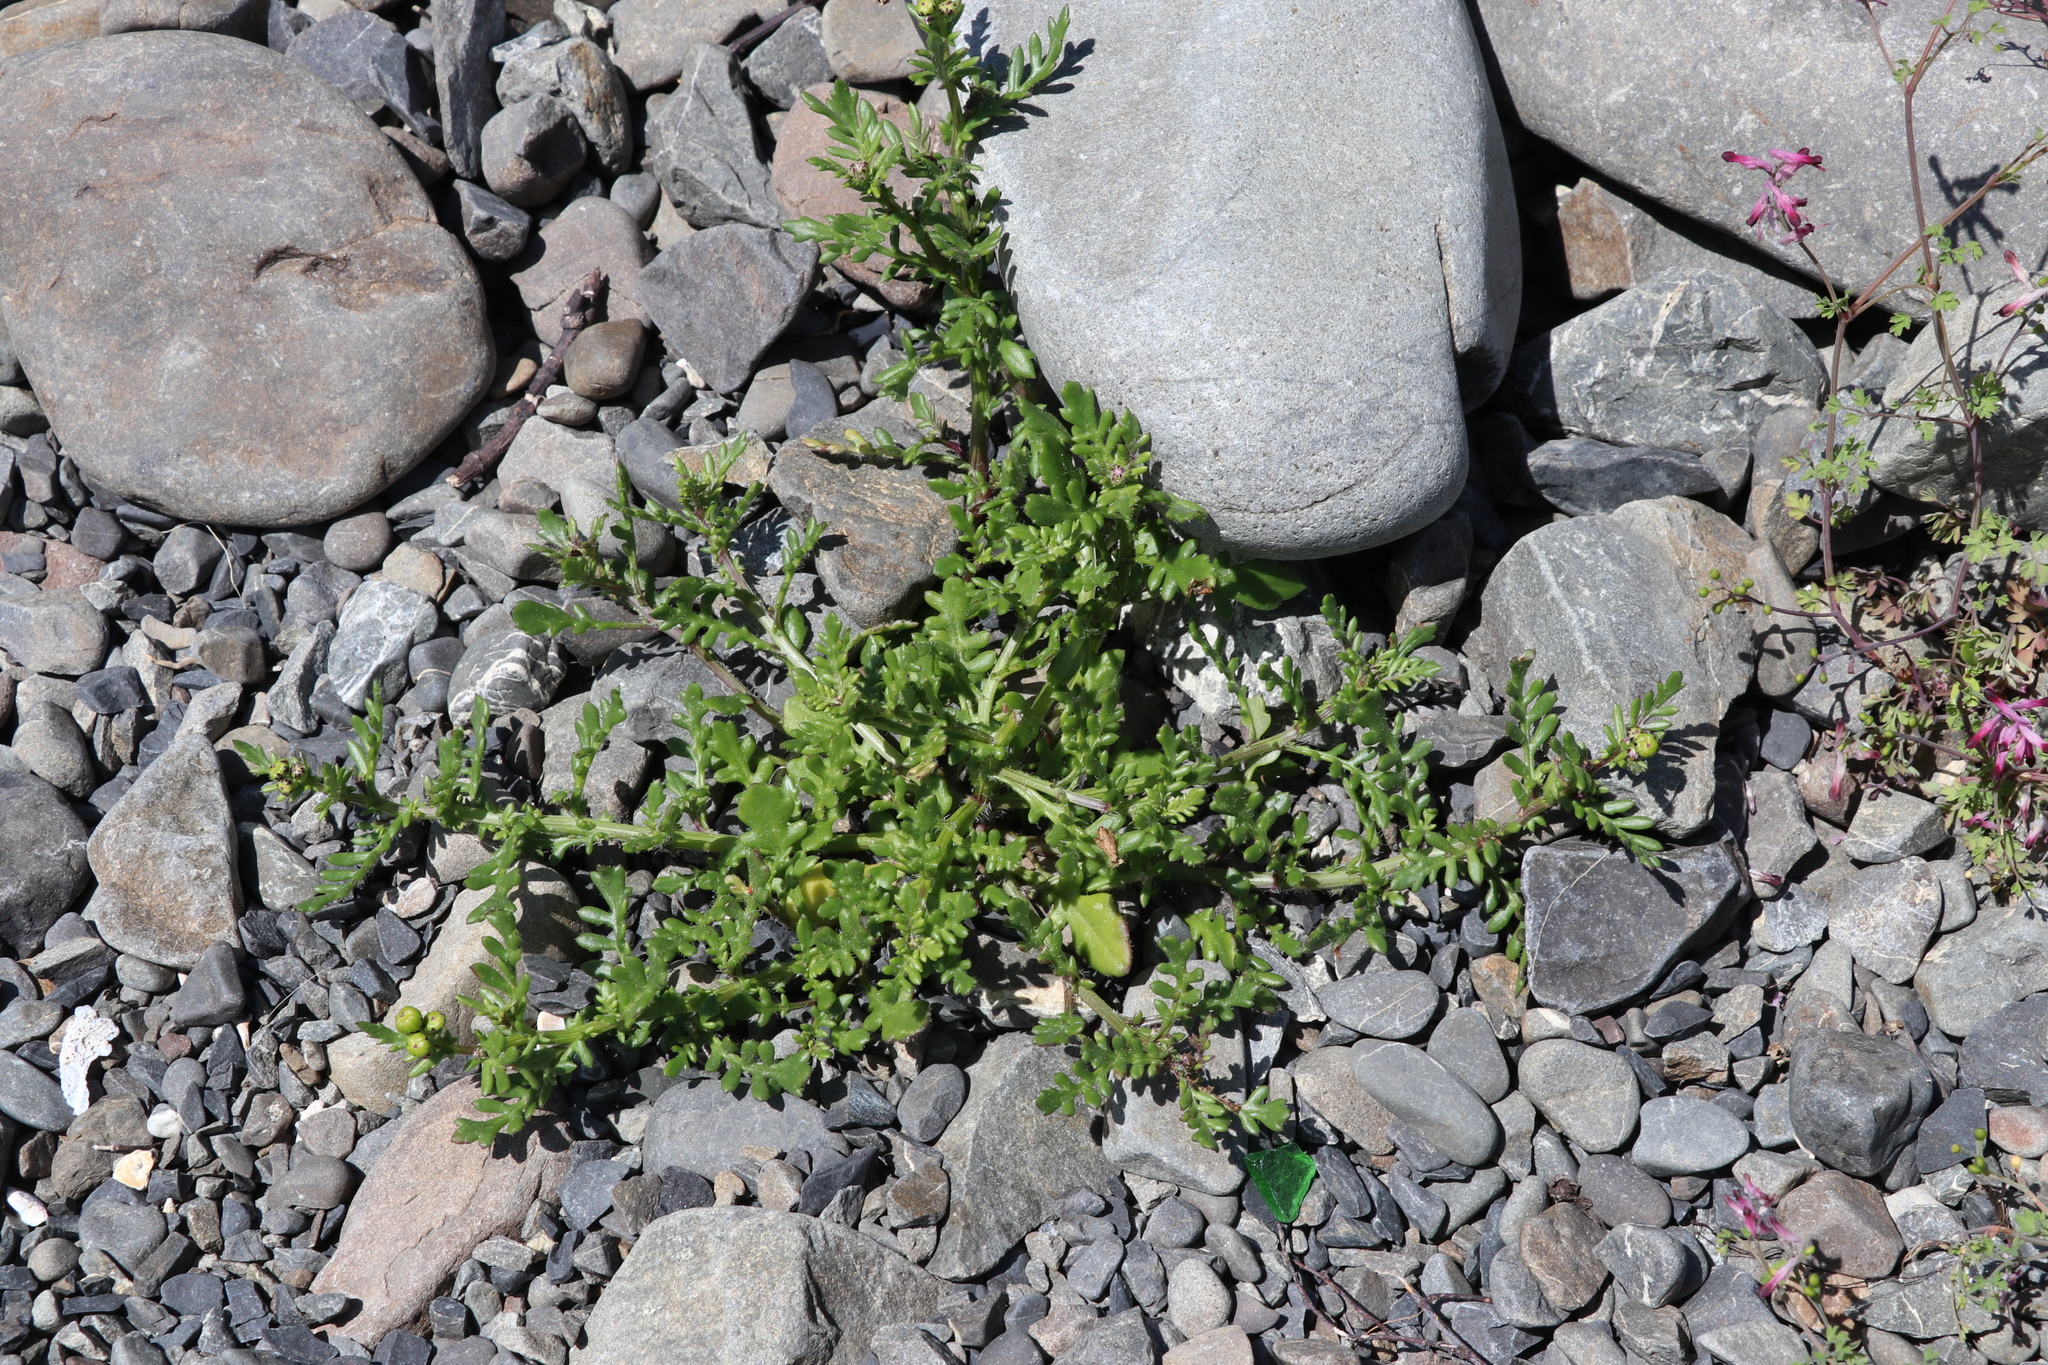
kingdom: Plantae
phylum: Tracheophyta
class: Magnoliopsida
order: Asterales
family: Asteraceae
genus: Senecio
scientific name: Senecio lautus
